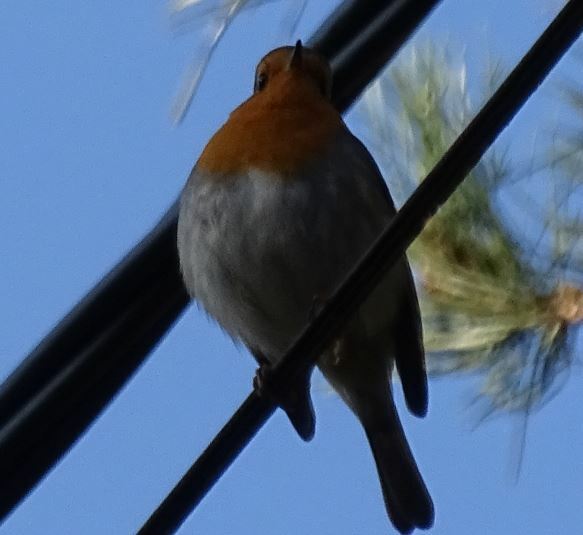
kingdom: Animalia
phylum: Chordata
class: Aves
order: Passeriformes
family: Muscicapidae
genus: Erithacus
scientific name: Erithacus rubecula
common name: European robin
